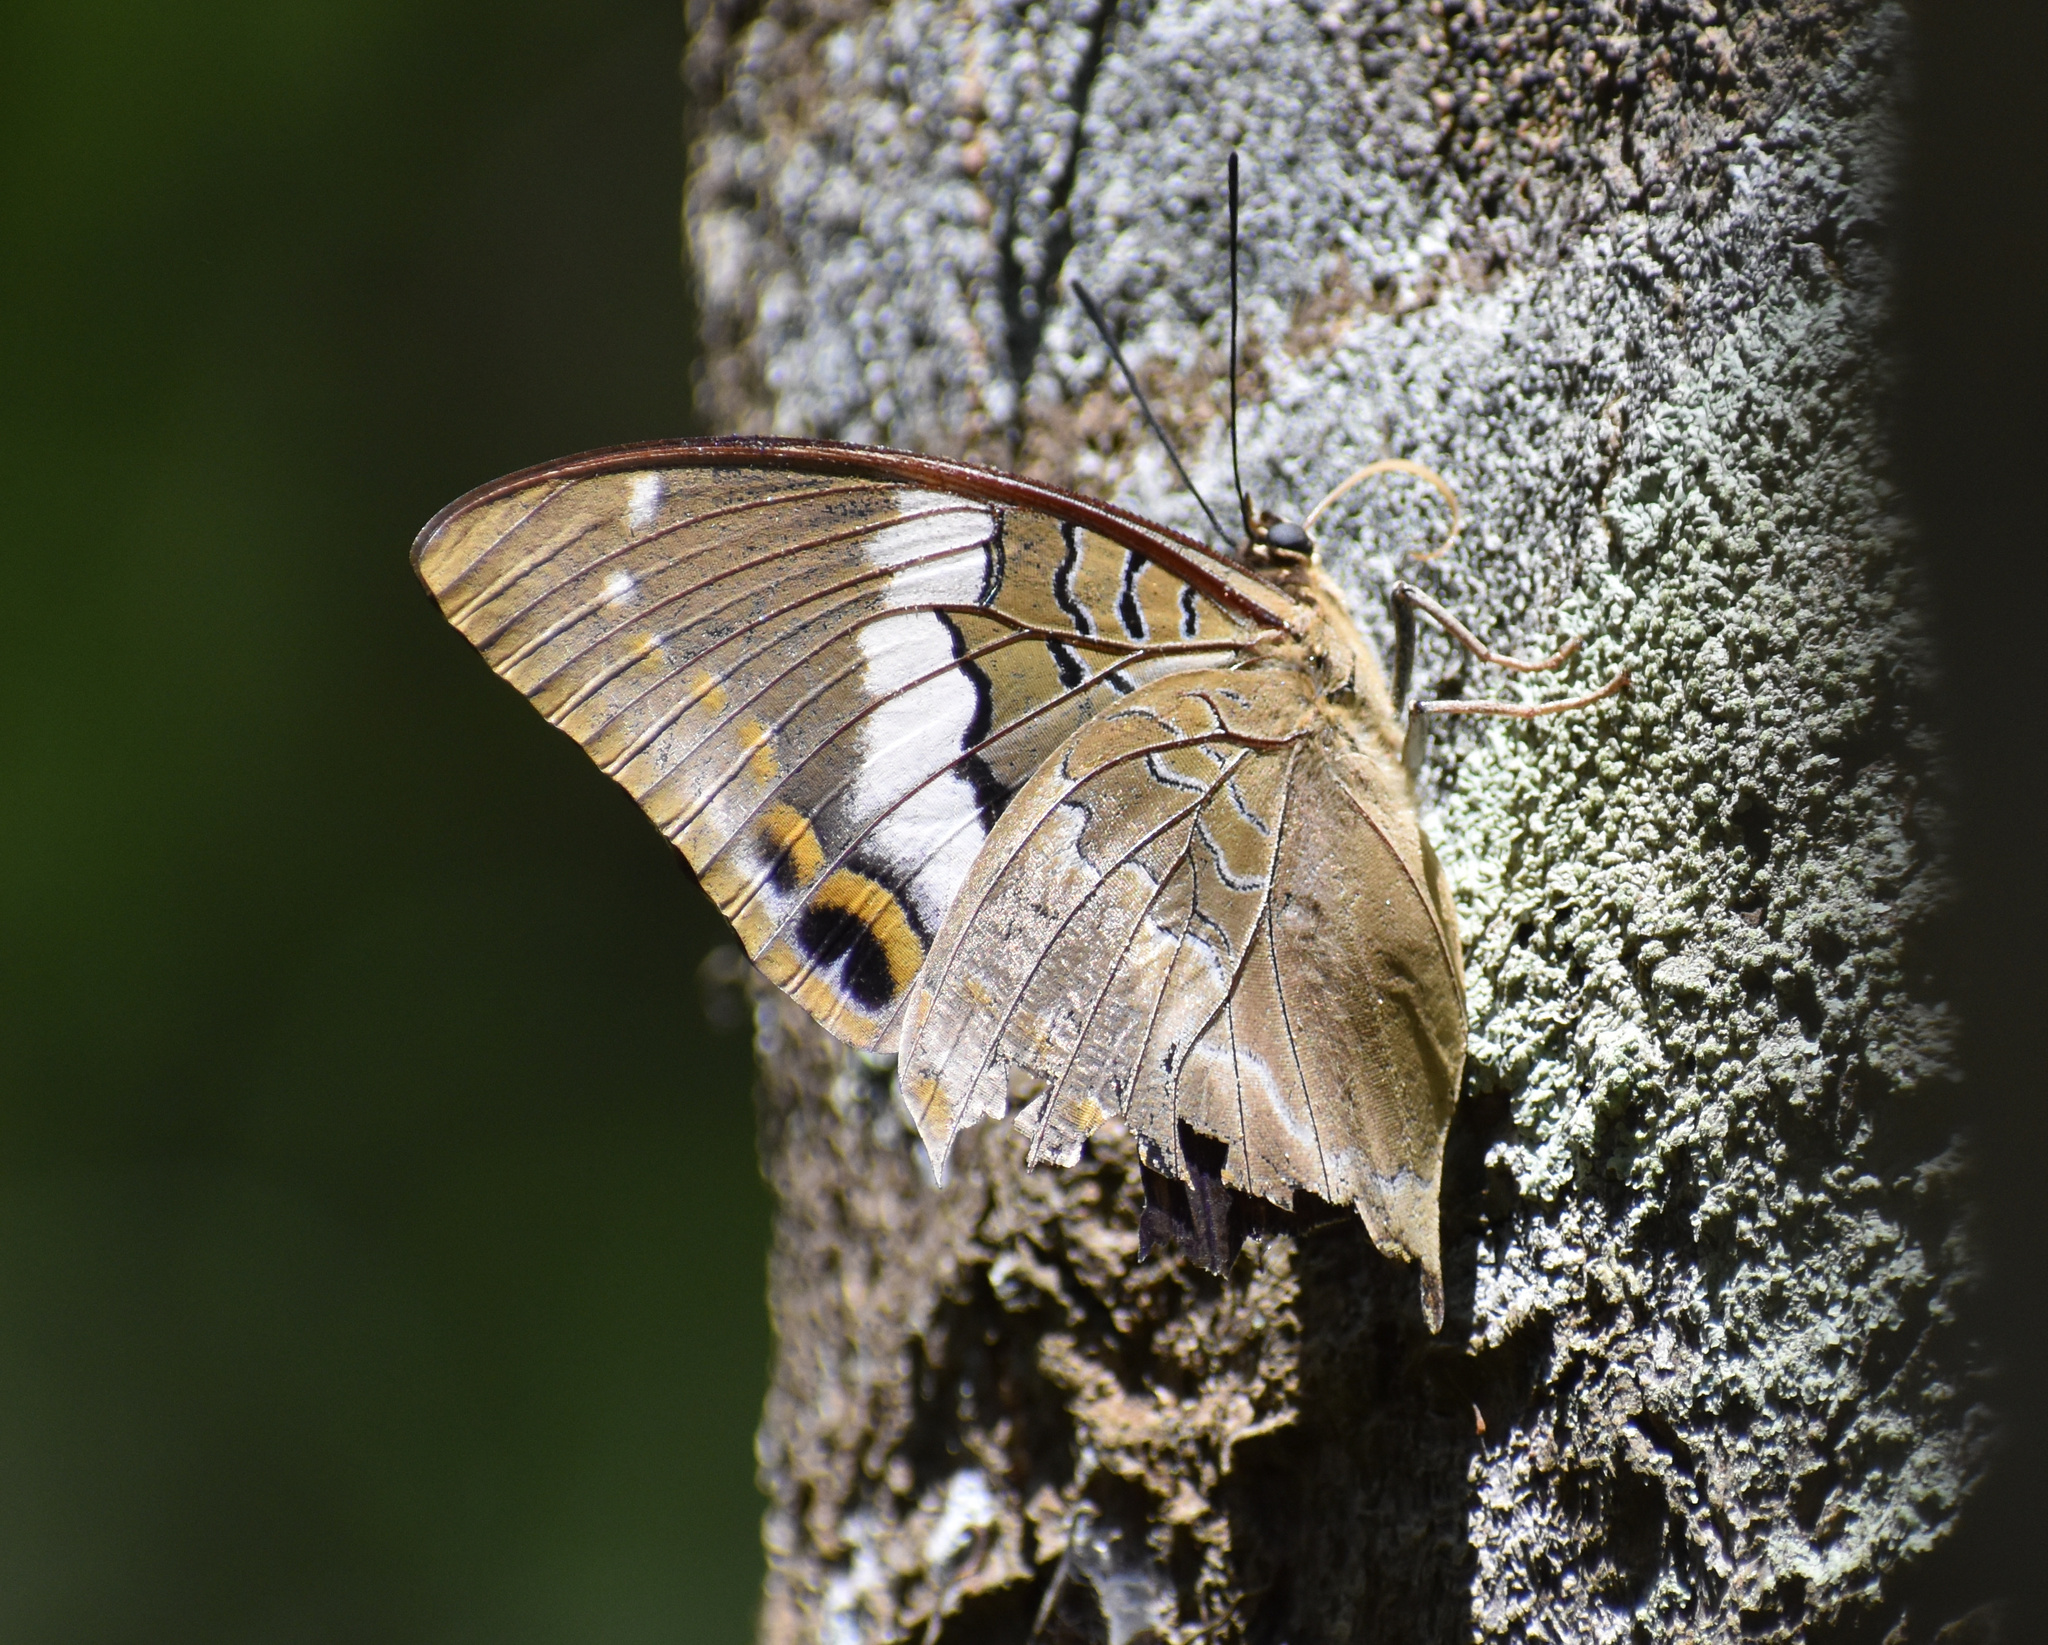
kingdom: Animalia
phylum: Arthropoda
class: Insecta
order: Lepidoptera
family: Nymphalidae
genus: Charaxes
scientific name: Charaxes cithaeron
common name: Blue-spotted charaxes
